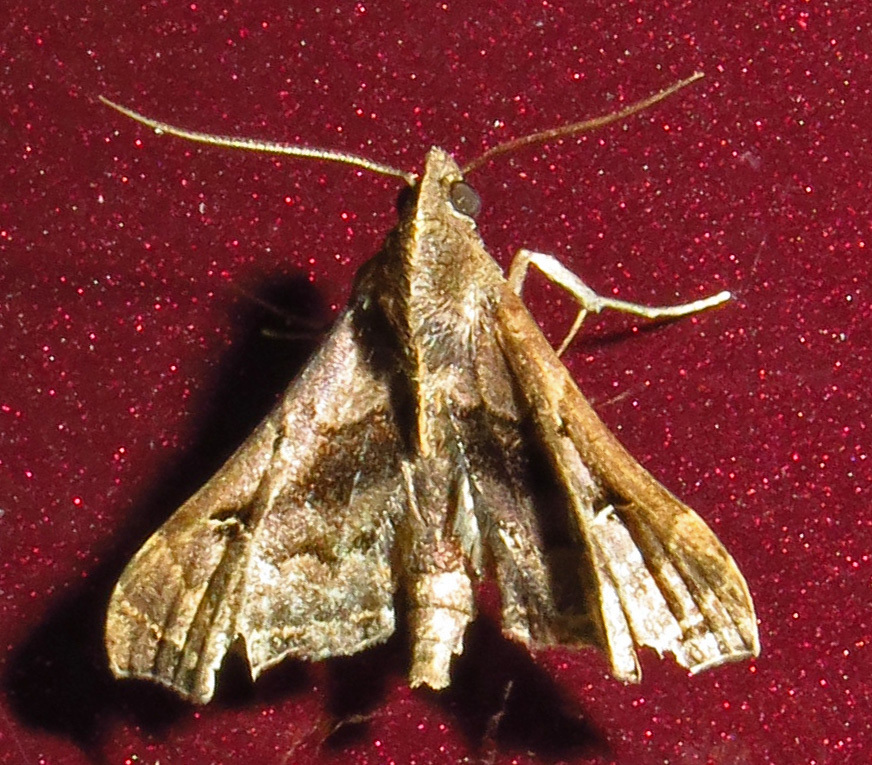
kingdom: Animalia
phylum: Arthropoda
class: Insecta
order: Lepidoptera
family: Erebidae
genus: Palthis
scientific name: Palthis asopialis
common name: Faint-spotted palthis moth
